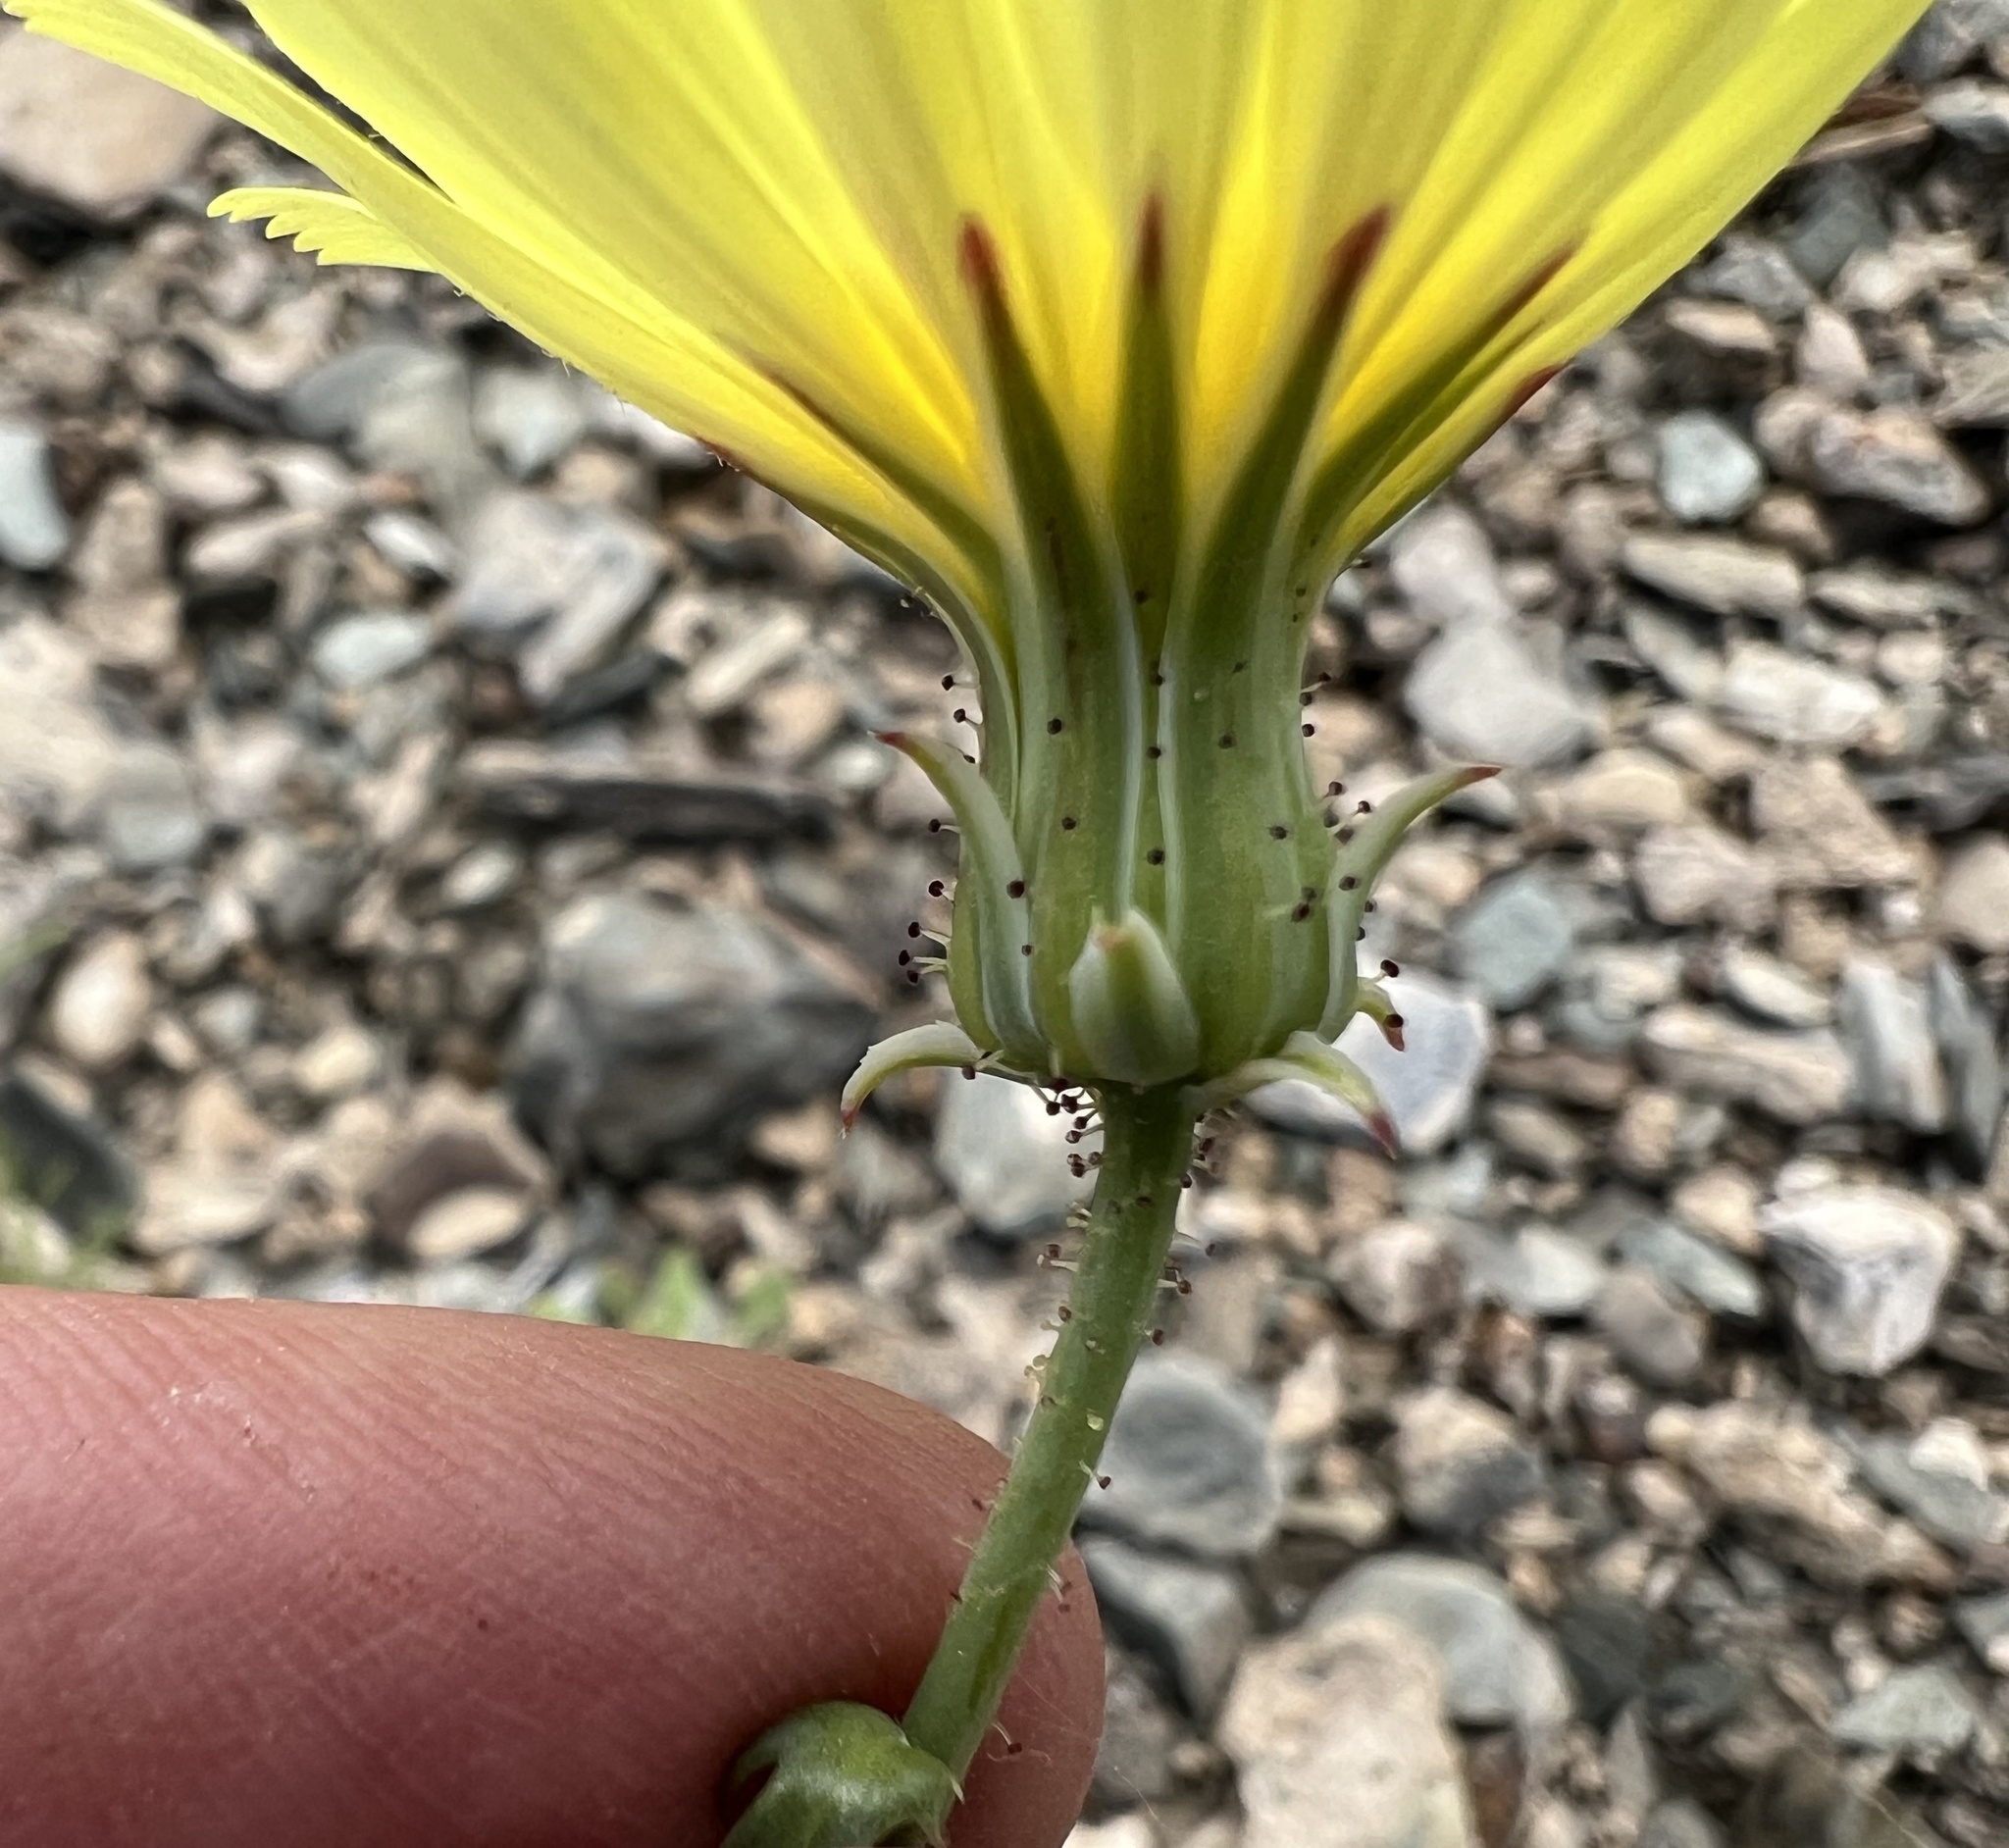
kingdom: Plantae
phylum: Tracheophyta
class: Magnoliopsida
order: Asterales
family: Asteraceae
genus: Calycoseris
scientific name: Calycoseris parryi
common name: Yellow tackstem
